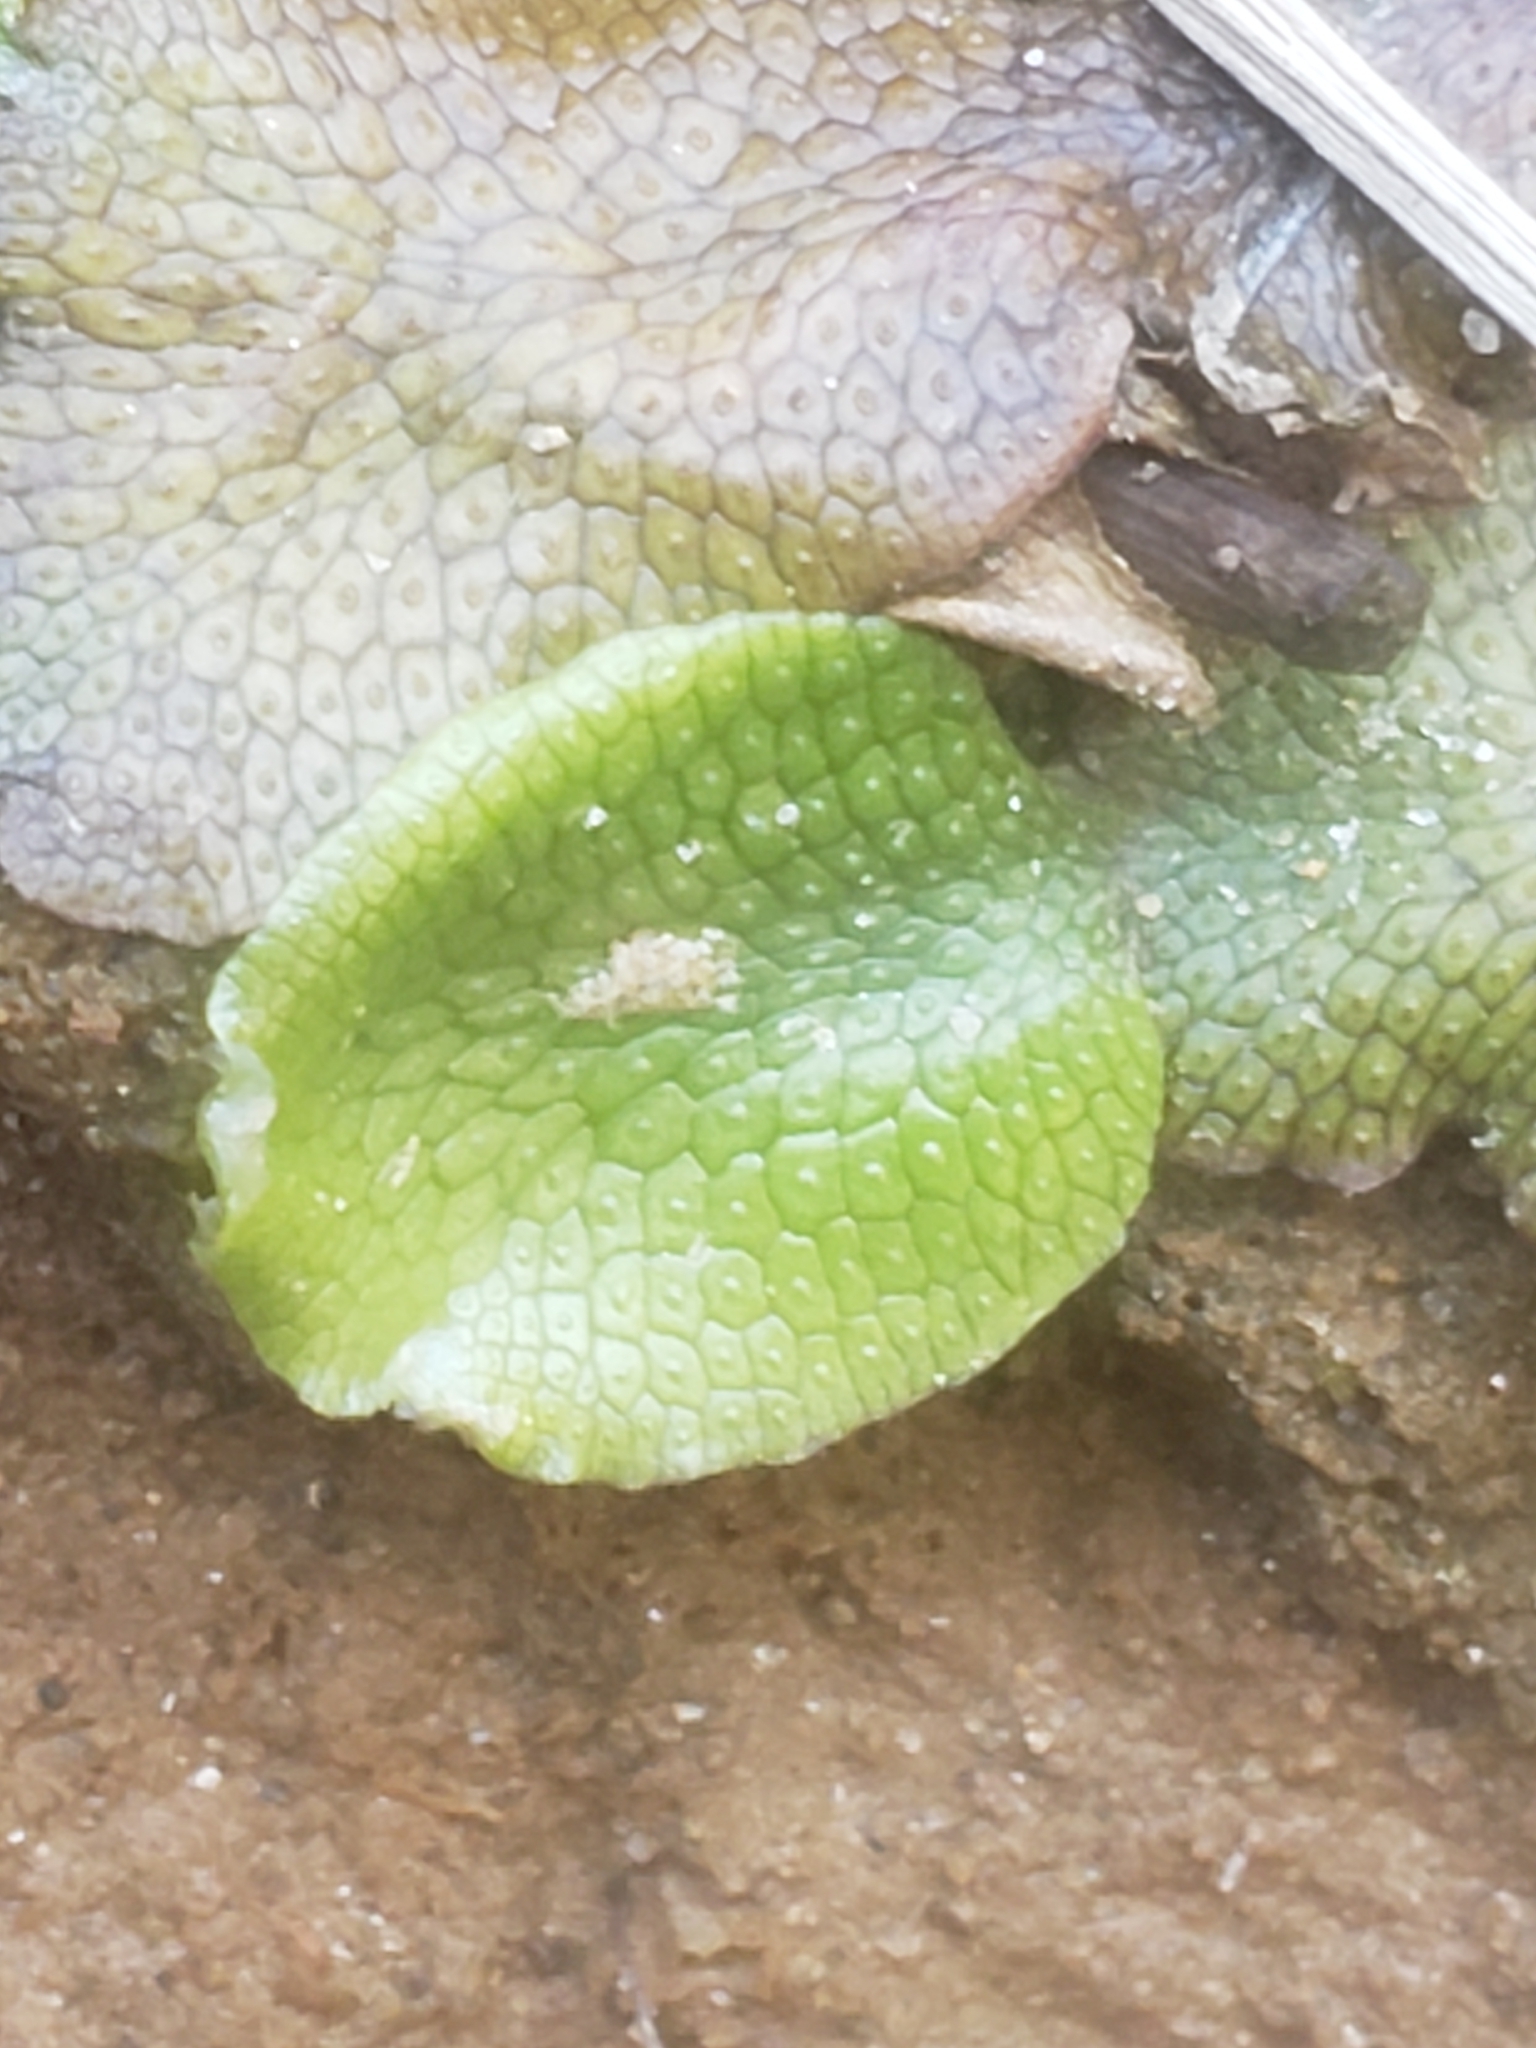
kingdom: Plantae
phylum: Marchantiophyta
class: Marchantiopsida
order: Marchantiales
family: Conocephalaceae
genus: Conocephalum
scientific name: Conocephalum salebrosum
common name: Cat-tongue liverwort
